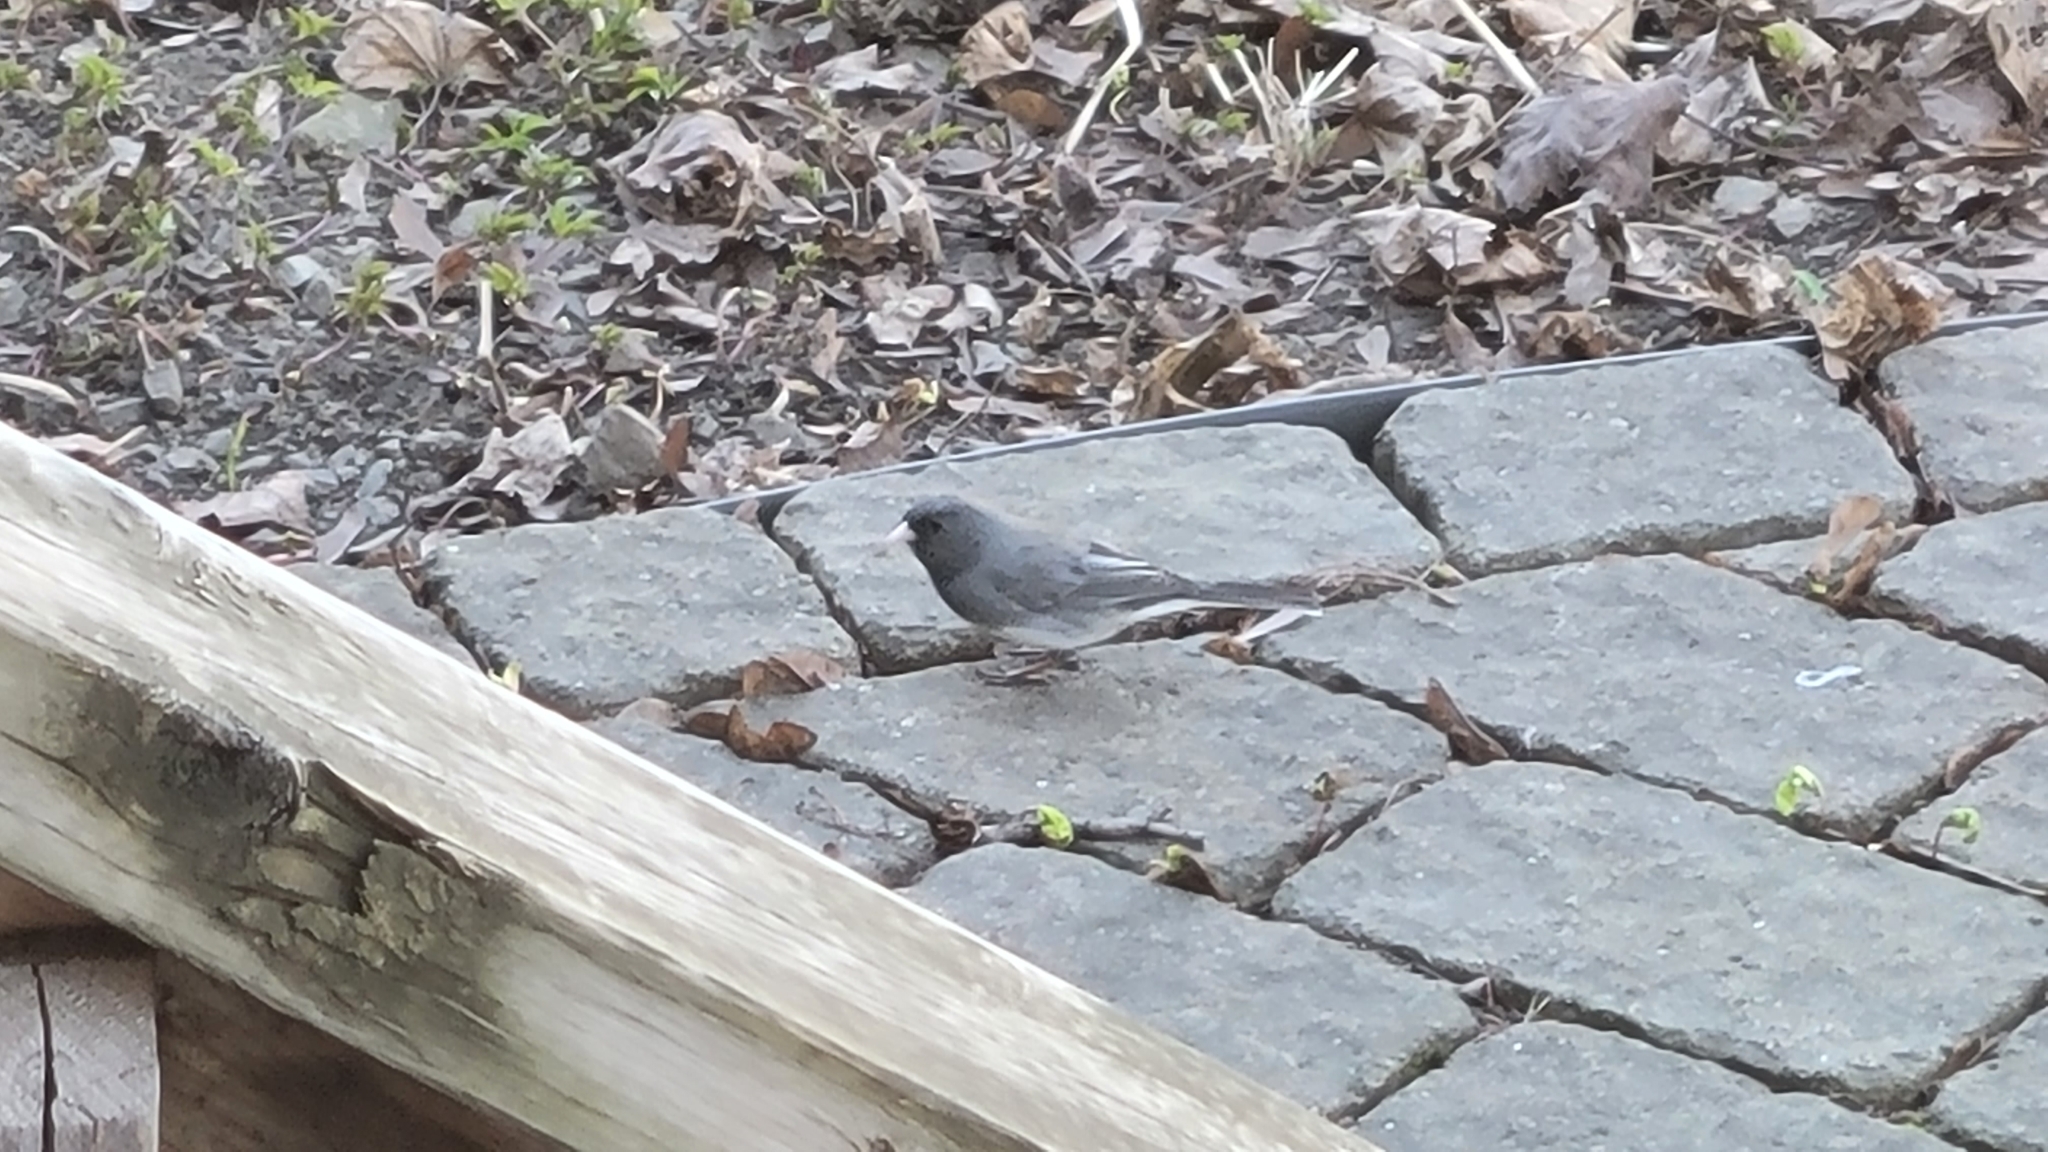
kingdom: Animalia
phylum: Chordata
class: Aves
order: Passeriformes
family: Passerellidae
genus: Junco
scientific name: Junco hyemalis
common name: Dark-eyed junco
